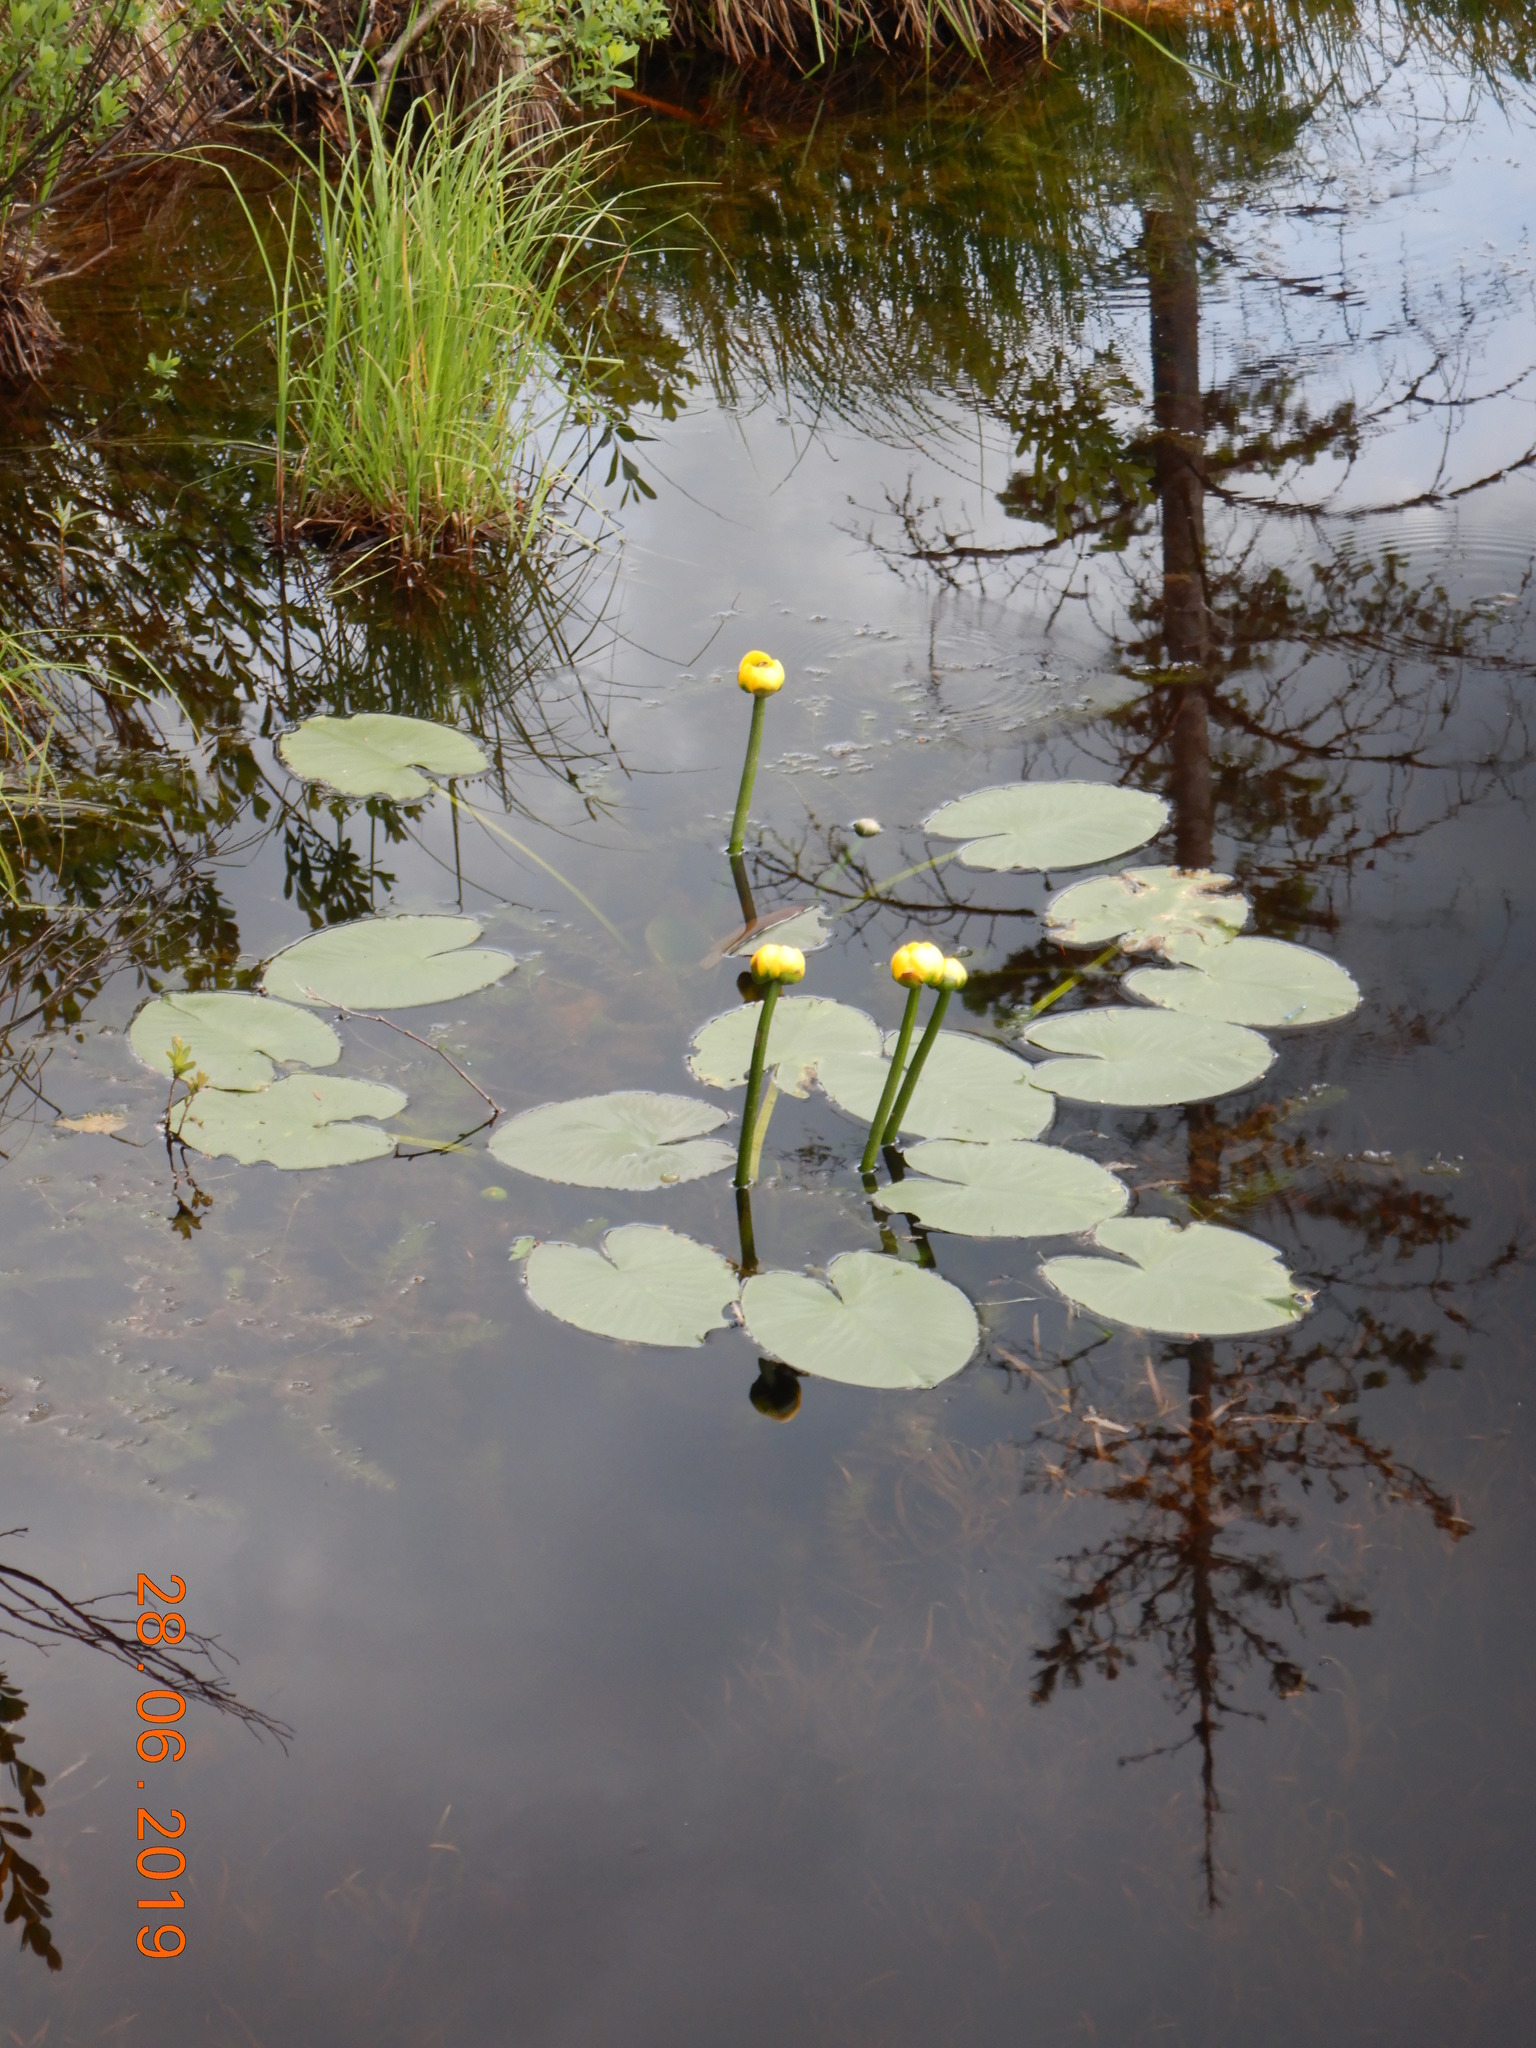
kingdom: Plantae
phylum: Tracheophyta
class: Magnoliopsida
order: Nymphaeales
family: Nymphaeaceae
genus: Nuphar
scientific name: Nuphar variegata
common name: Beaver-root
